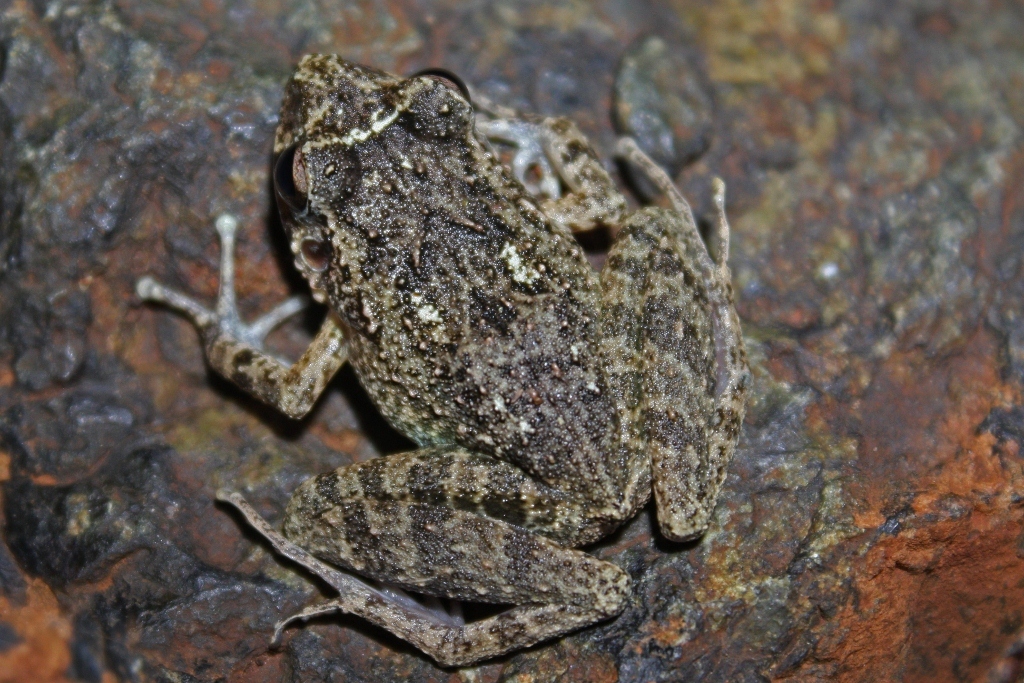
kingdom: Animalia
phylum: Chordata
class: Amphibia
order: Anura
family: Eleutherodactylidae
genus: Eleutherodactylus
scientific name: Eleutherodactylus cuneatus
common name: Oriente streamside frog
